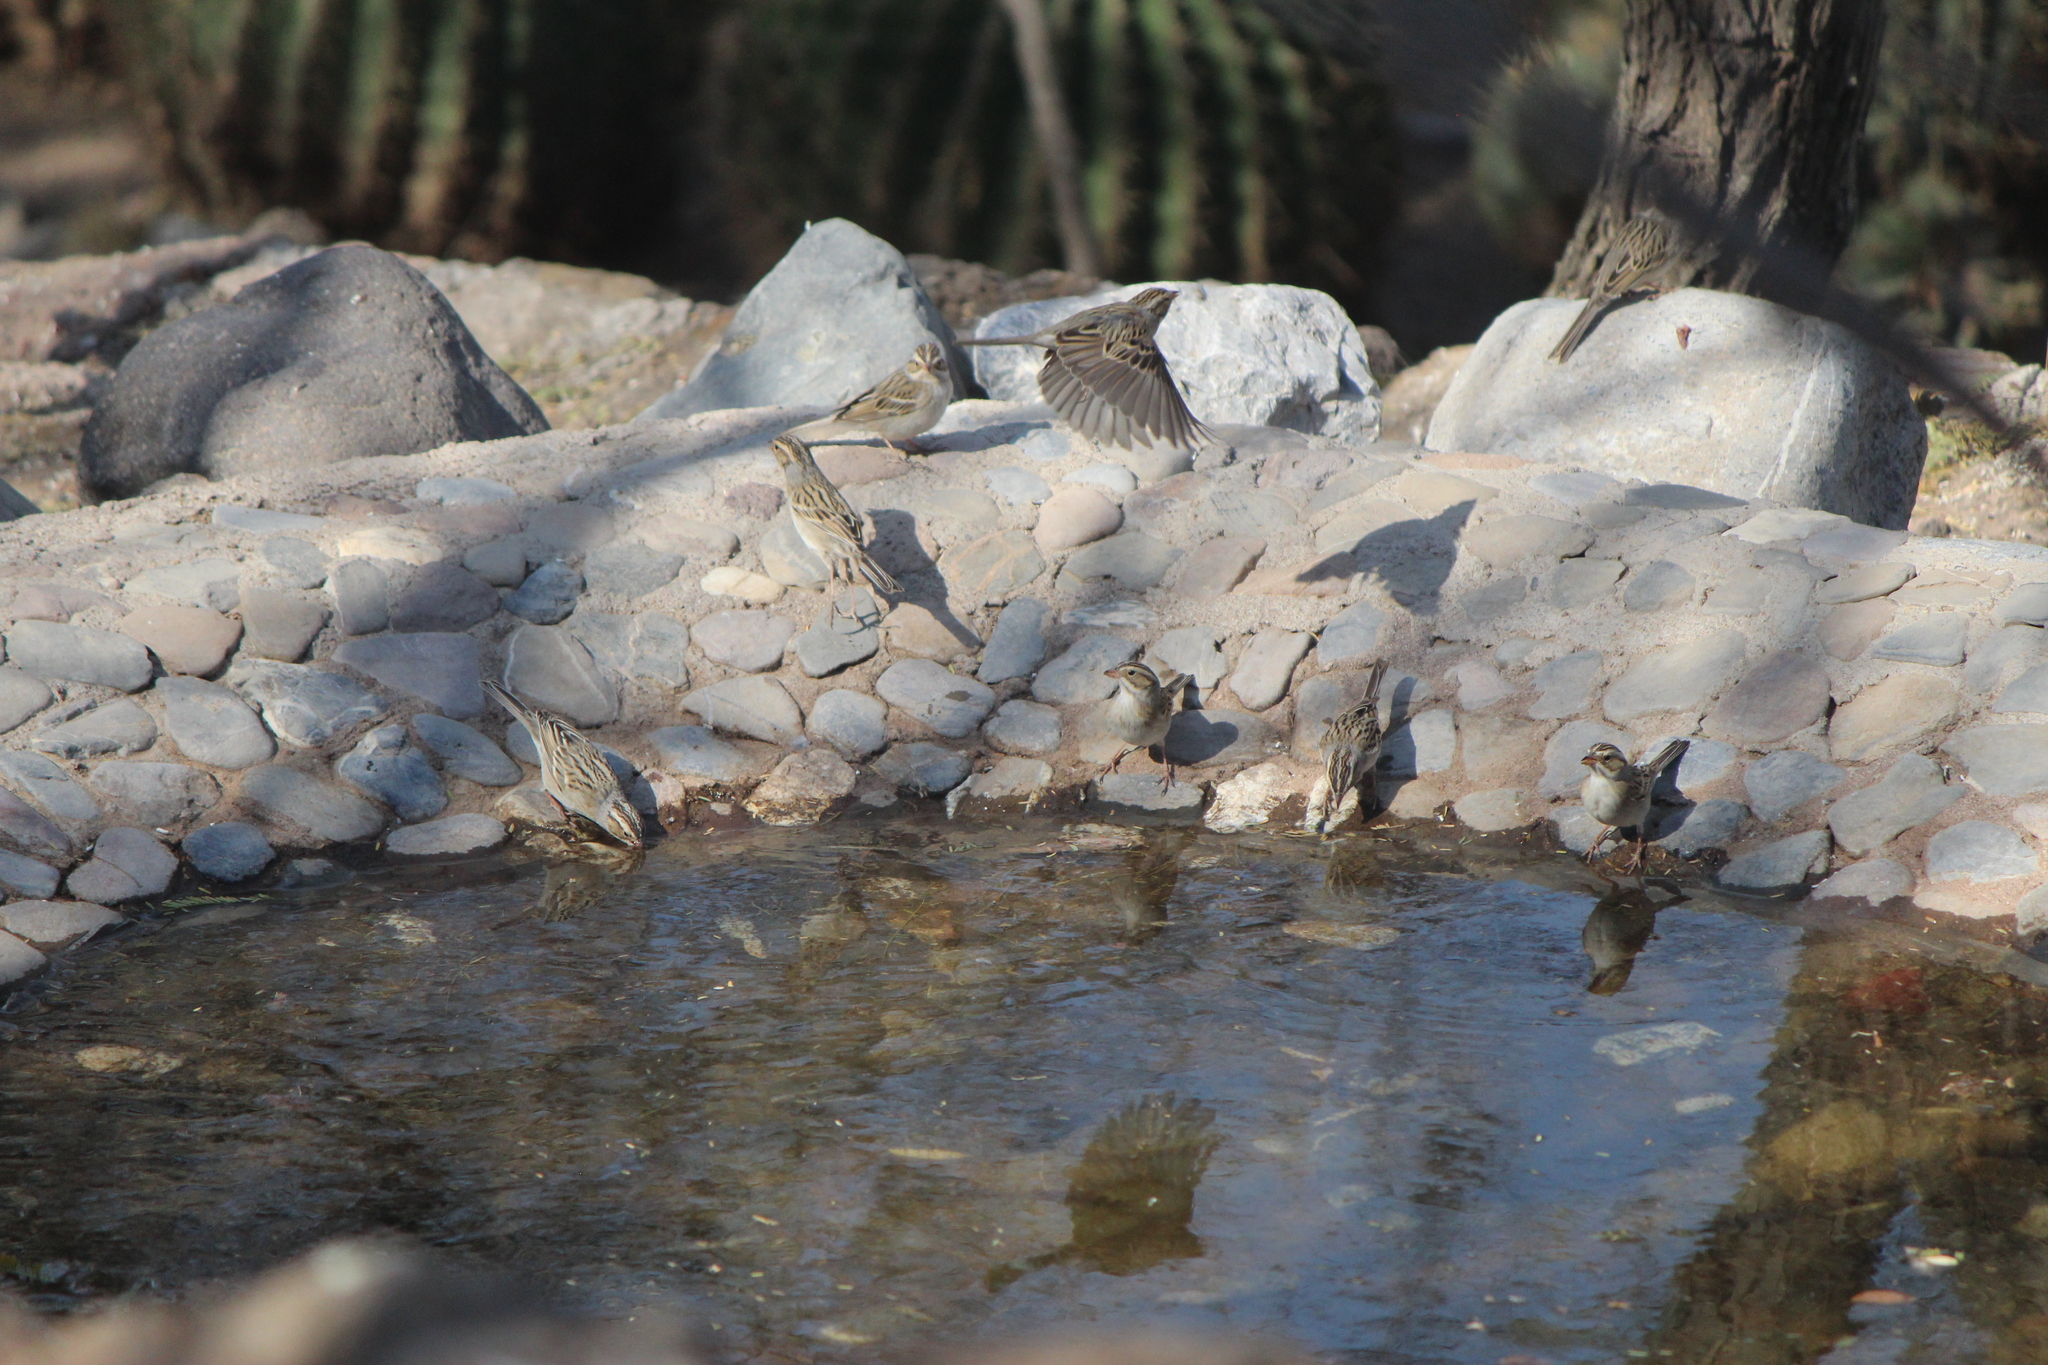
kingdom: Animalia
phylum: Chordata
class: Aves
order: Passeriformes
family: Passerellidae
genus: Spizella
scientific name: Spizella pallida
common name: Clay-colored sparrow
